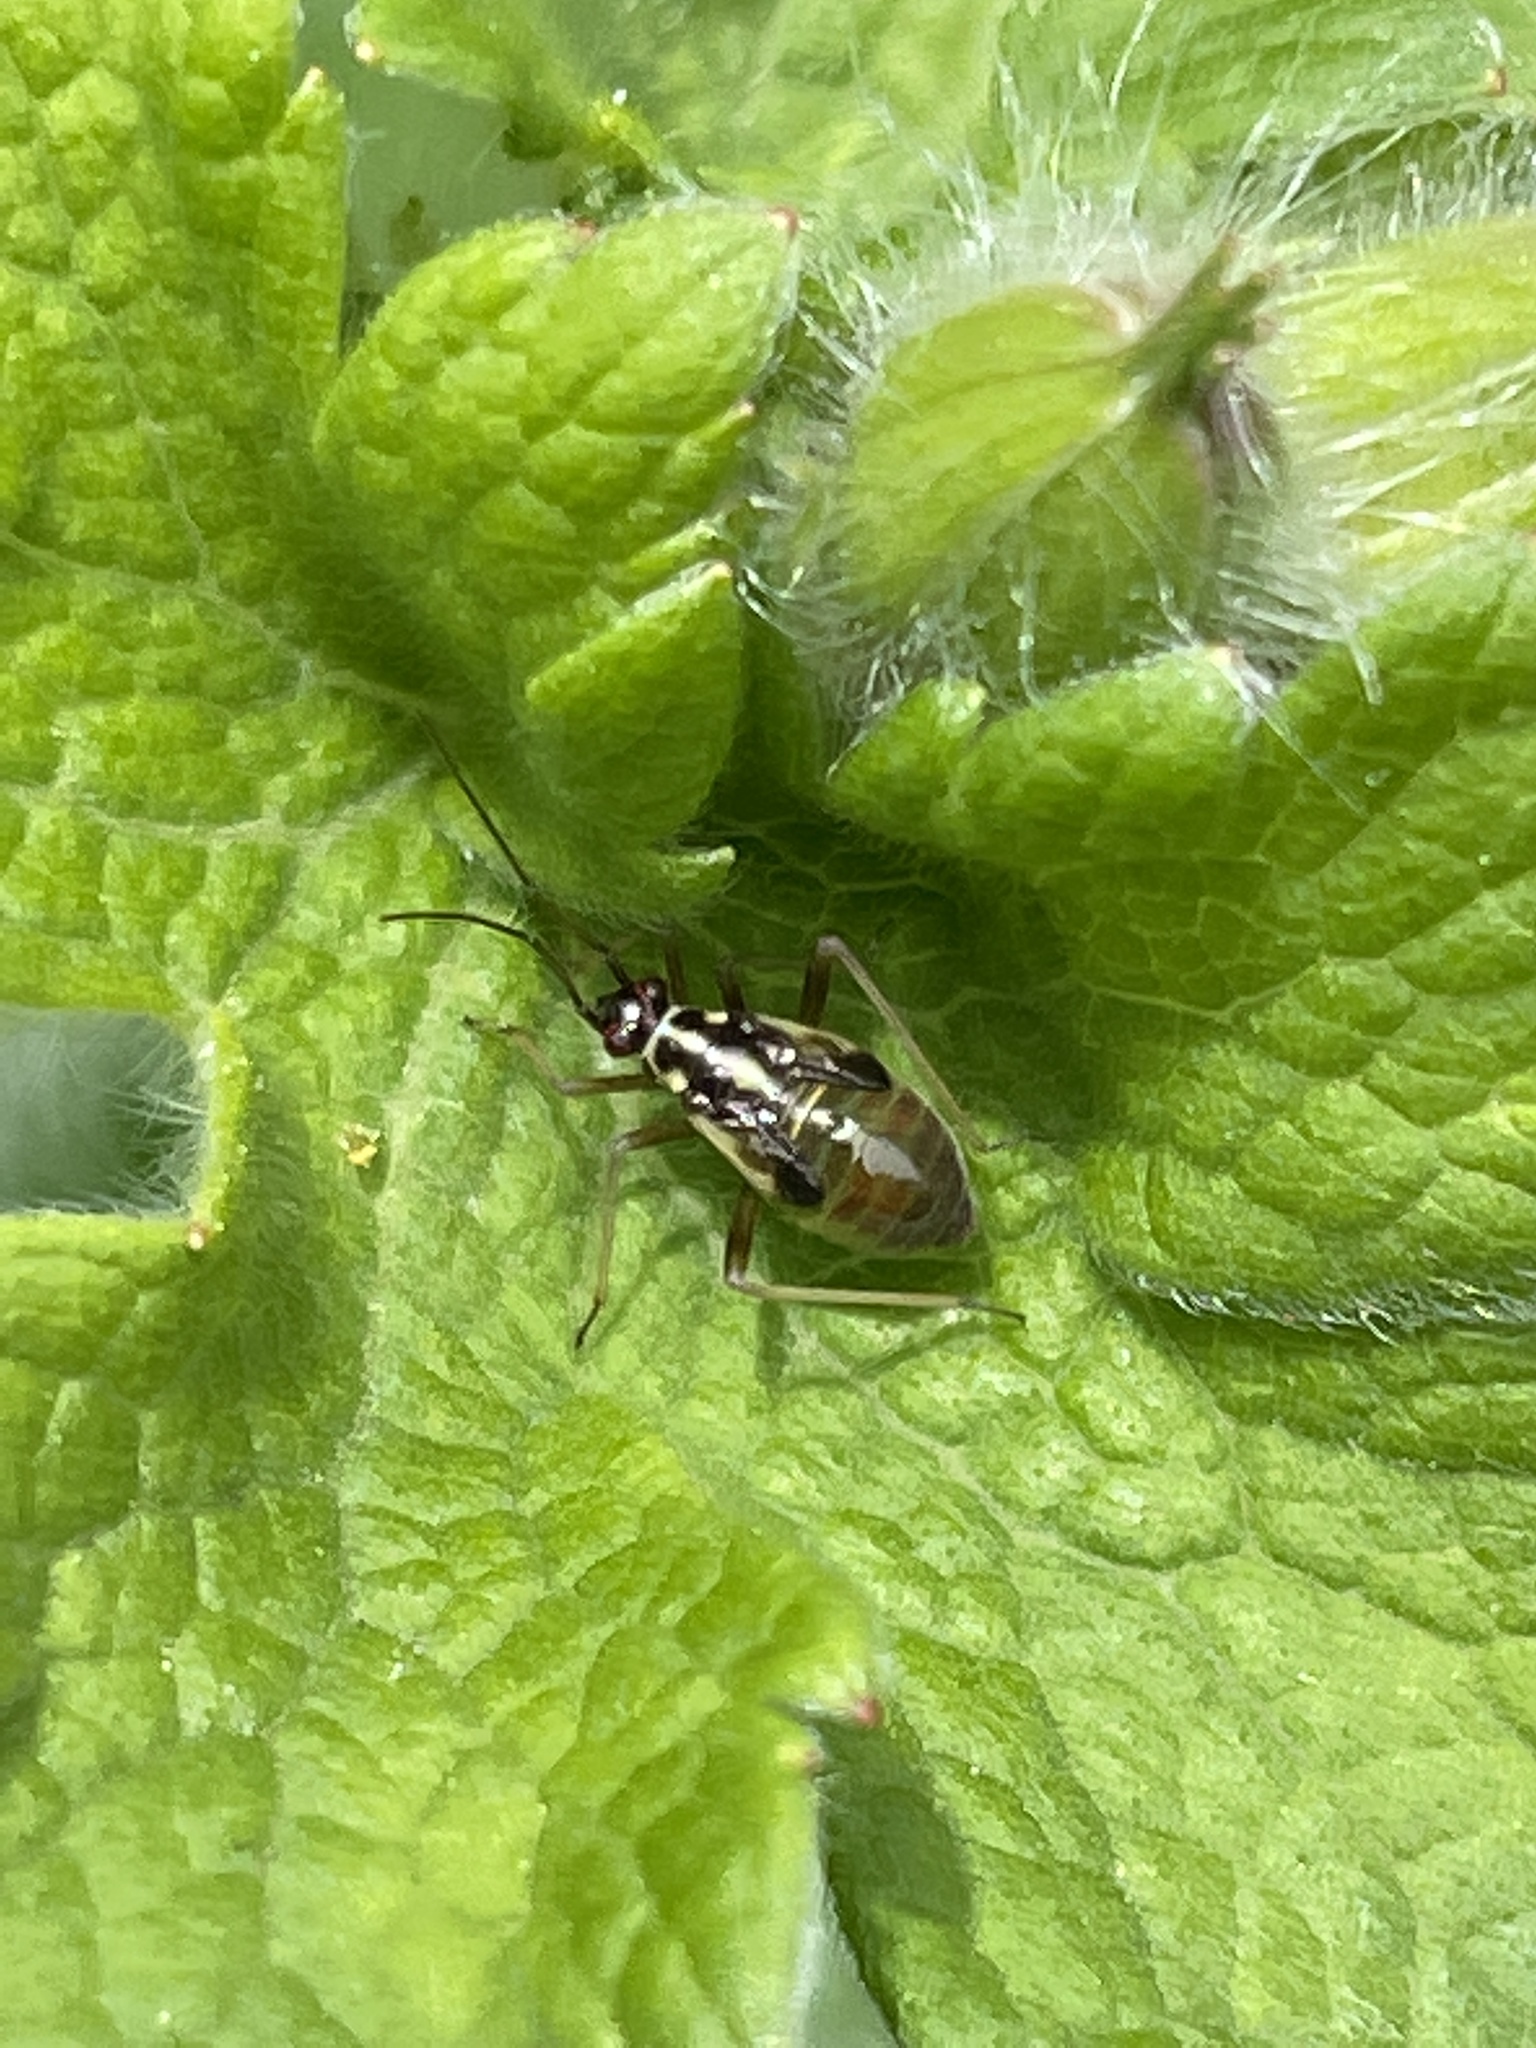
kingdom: Animalia
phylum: Arthropoda
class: Insecta
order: Hemiptera
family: Miridae
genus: Grypocoris
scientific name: Grypocoris stysi
